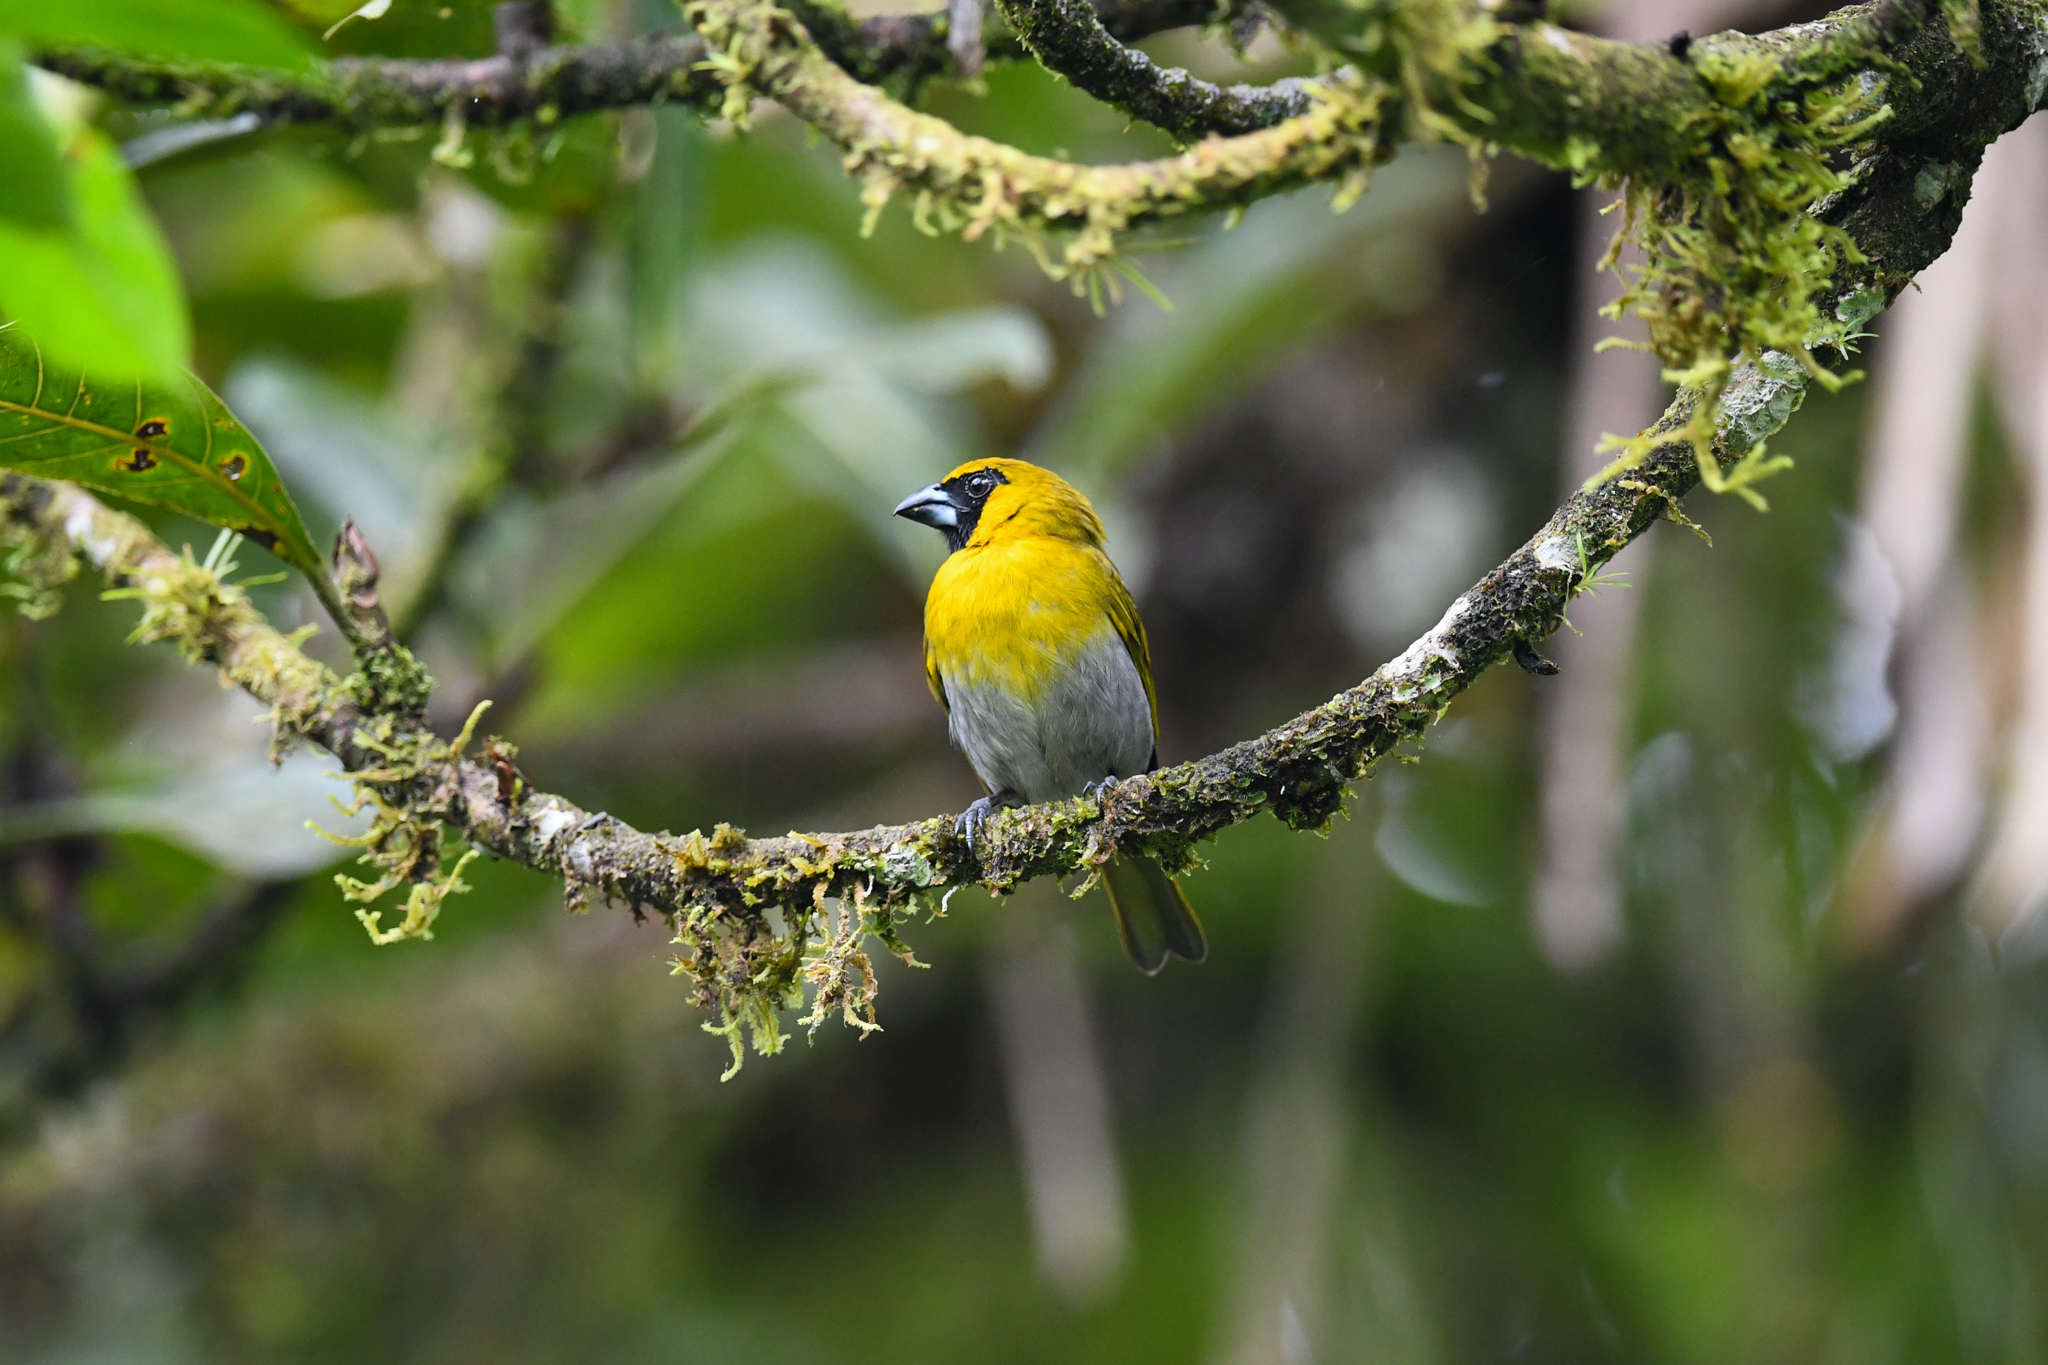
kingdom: Animalia
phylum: Chordata
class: Aves
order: Passeriformes
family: Cardinalidae
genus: Caryothraustes
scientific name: Caryothraustes poliogaster
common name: Black-faced grosbeak
